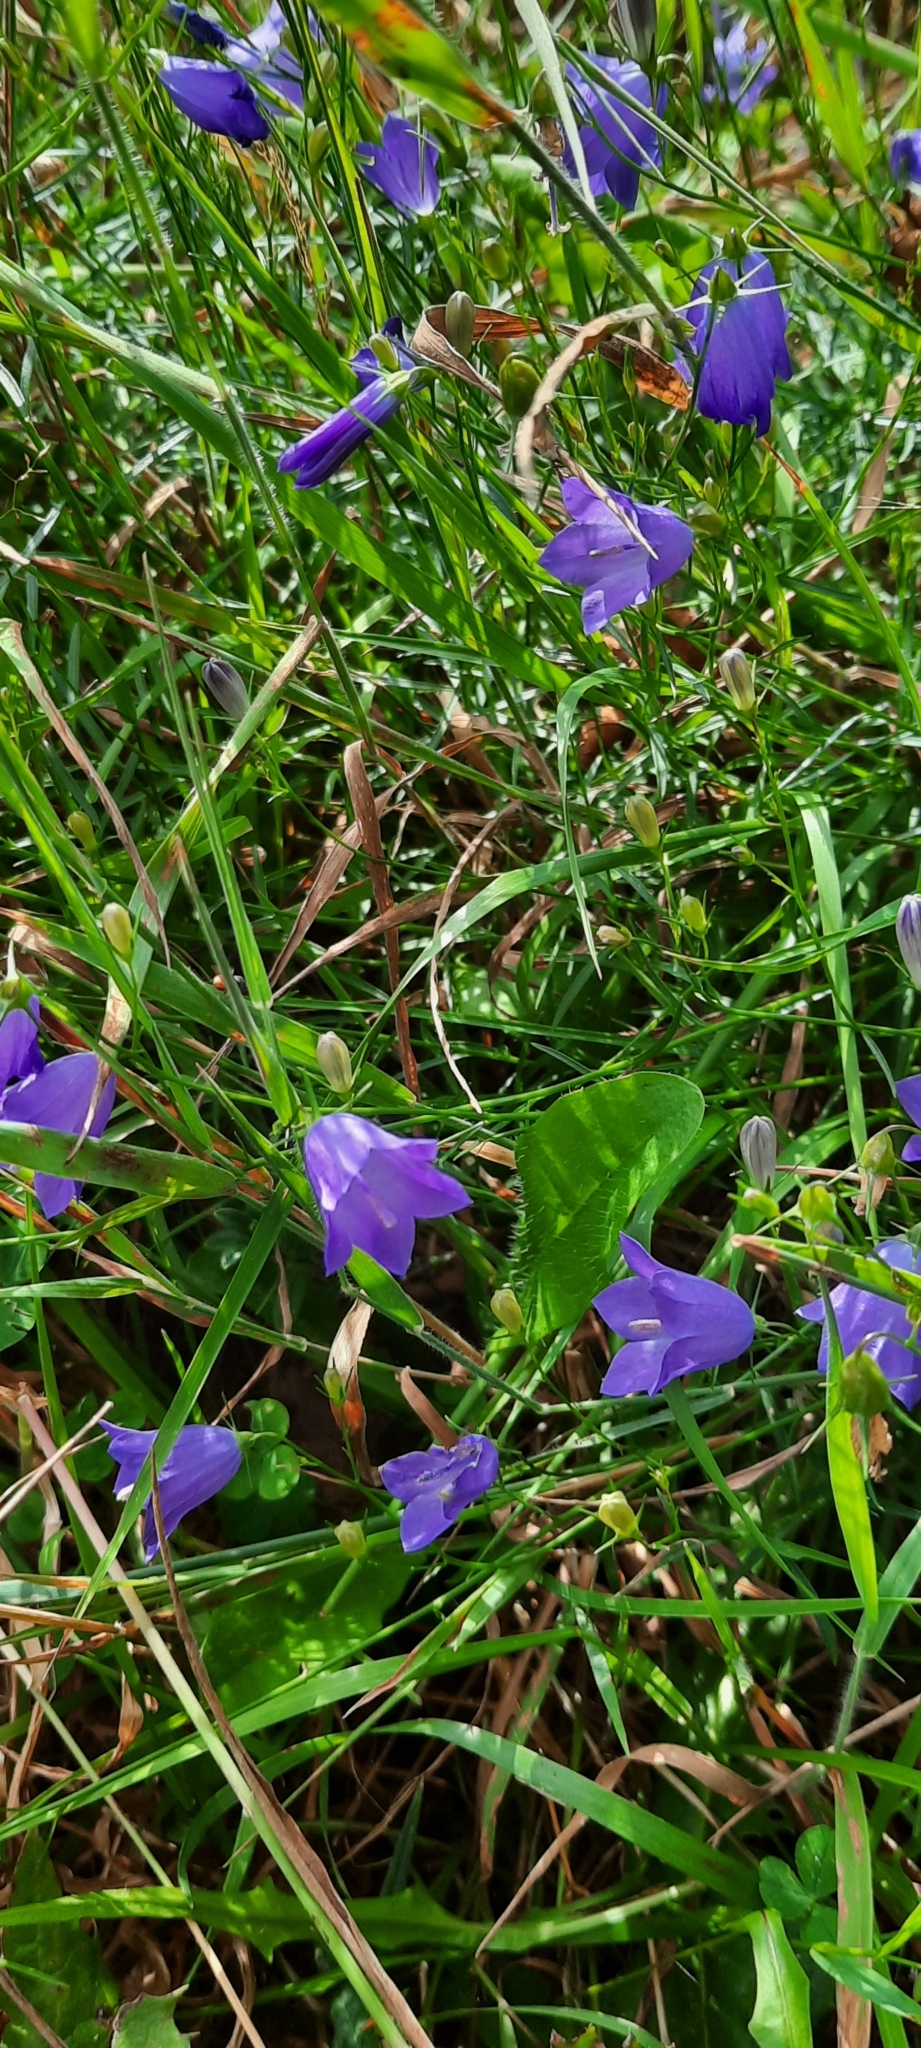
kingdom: Plantae
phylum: Tracheophyta
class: Magnoliopsida
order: Asterales
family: Campanulaceae
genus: Campanula
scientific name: Campanula rotundifolia
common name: Harebell
